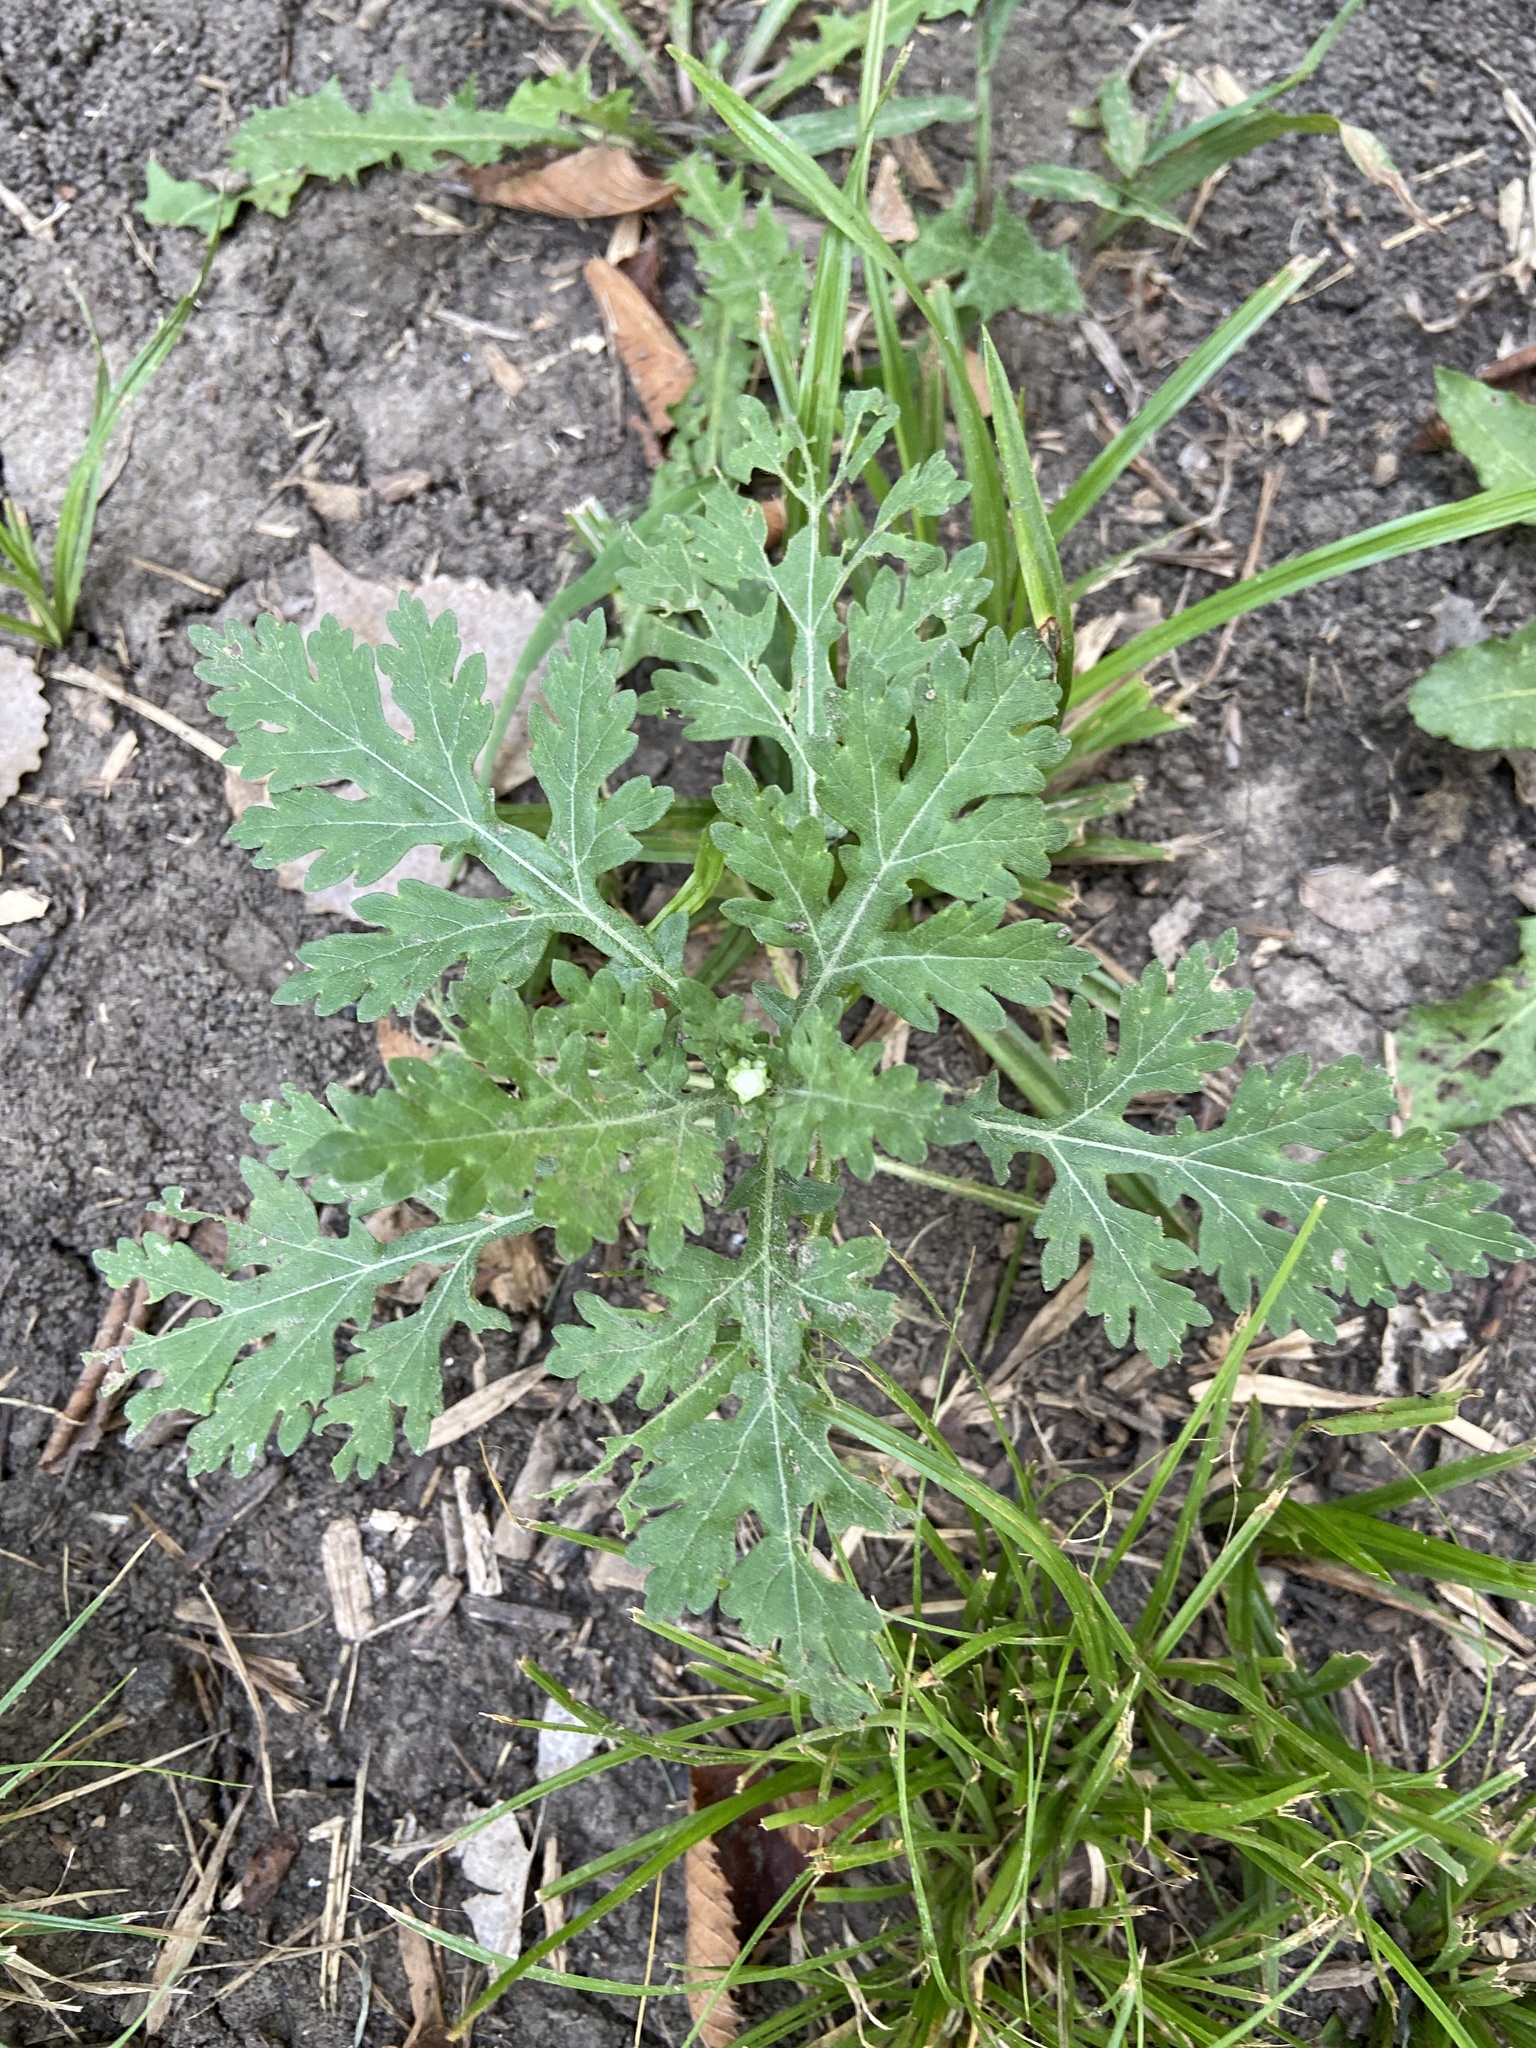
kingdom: Plantae
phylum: Tracheophyta
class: Magnoliopsida
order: Asterales
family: Asteraceae
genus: Parthenium
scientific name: Parthenium hysterophorus
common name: Santa maria feverfew
